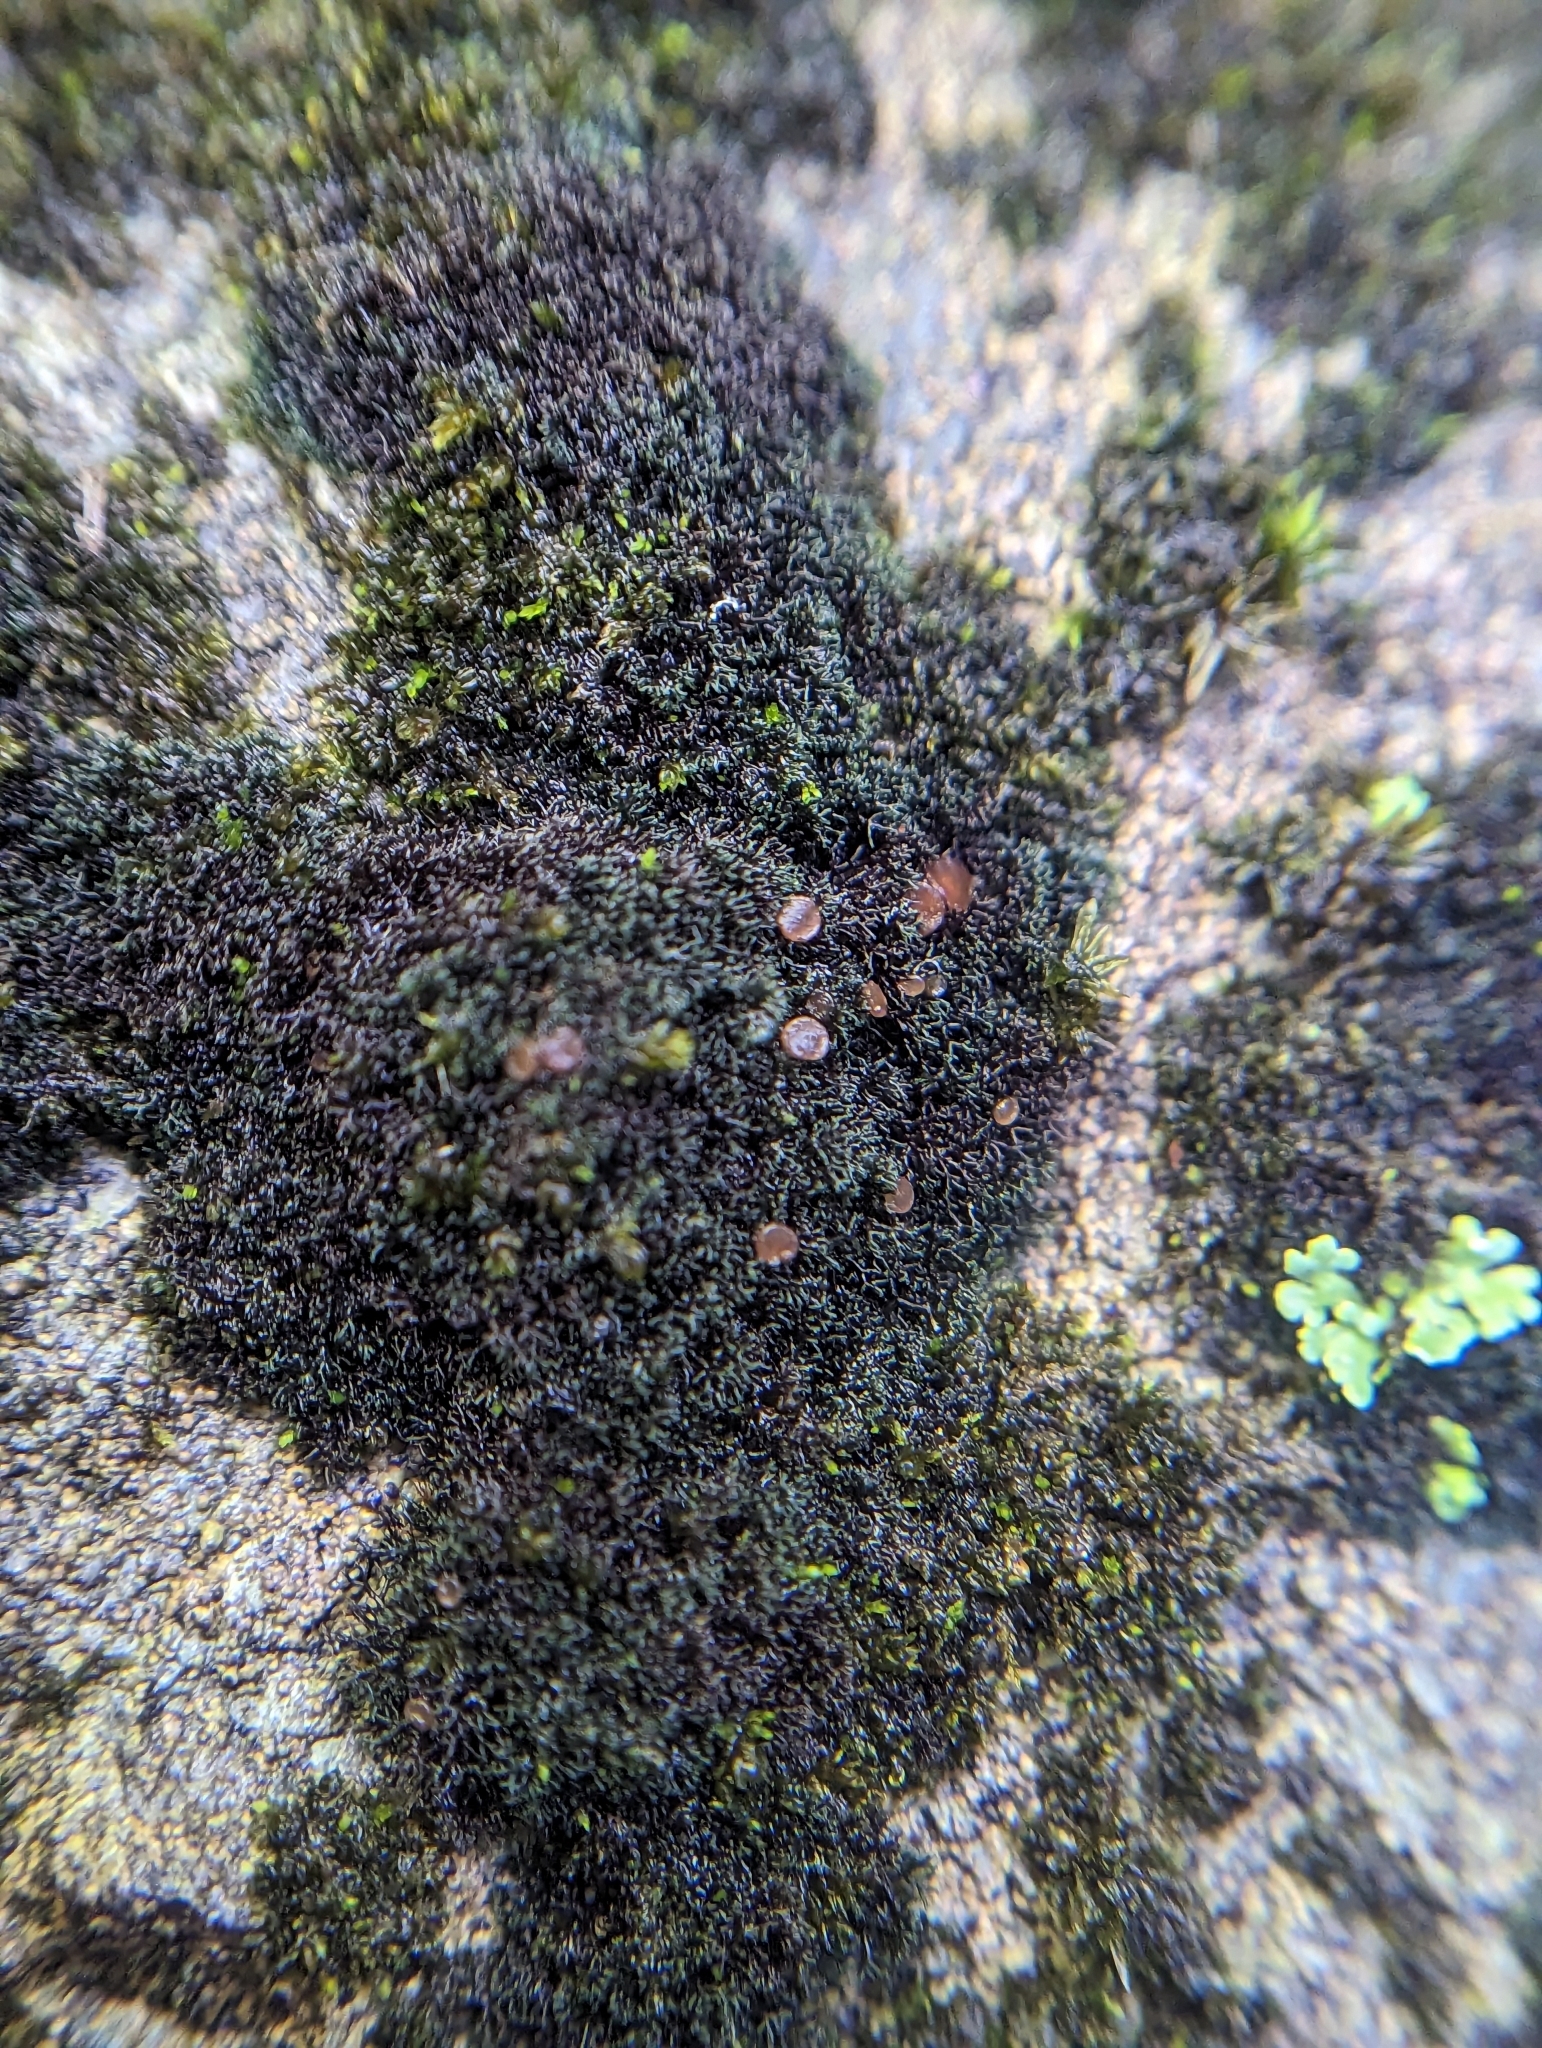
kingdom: Fungi
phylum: Ascomycota
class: Lecanoromycetes
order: Peltigerales
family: Massalongiaceae
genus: Polychidium
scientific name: Polychidium muscicola
